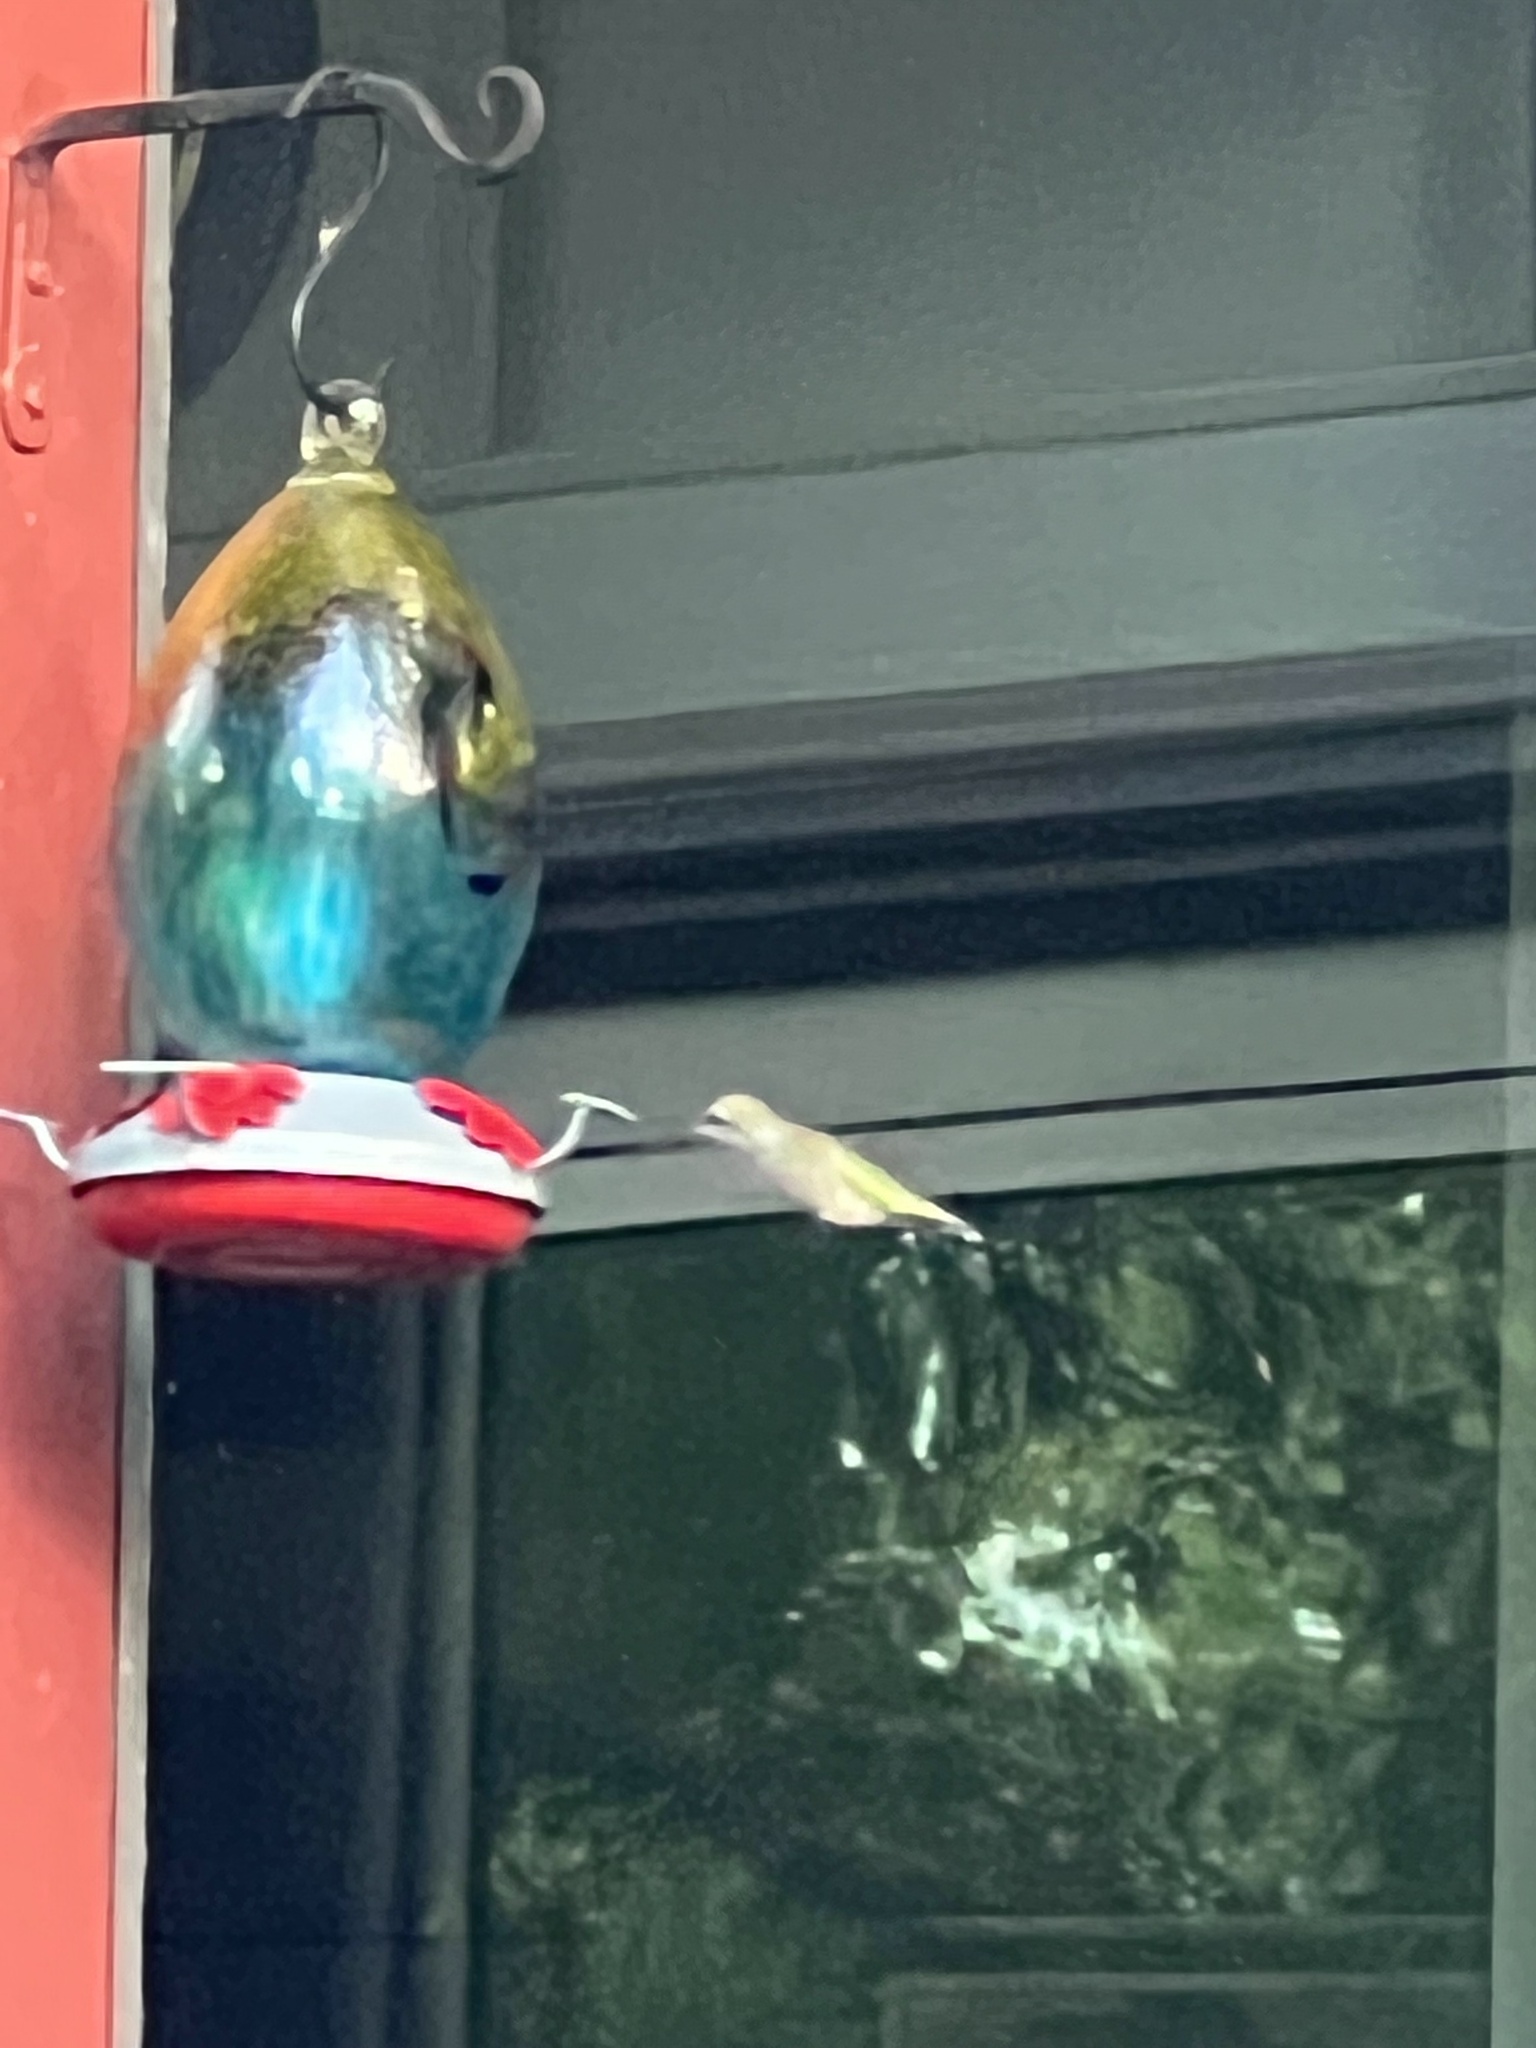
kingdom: Animalia
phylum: Chordata
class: Aves
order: Apodiformes
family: Trochilidae
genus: Archilochus
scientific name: Archilochus colubris
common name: Ruby-throated hummingbird
